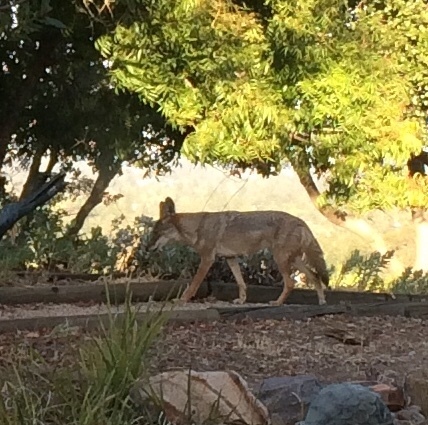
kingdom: Animalia
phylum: Chordata
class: Mammalia
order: Carnivora
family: Canidae
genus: Canis
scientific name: Canis latrans
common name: Coyote
